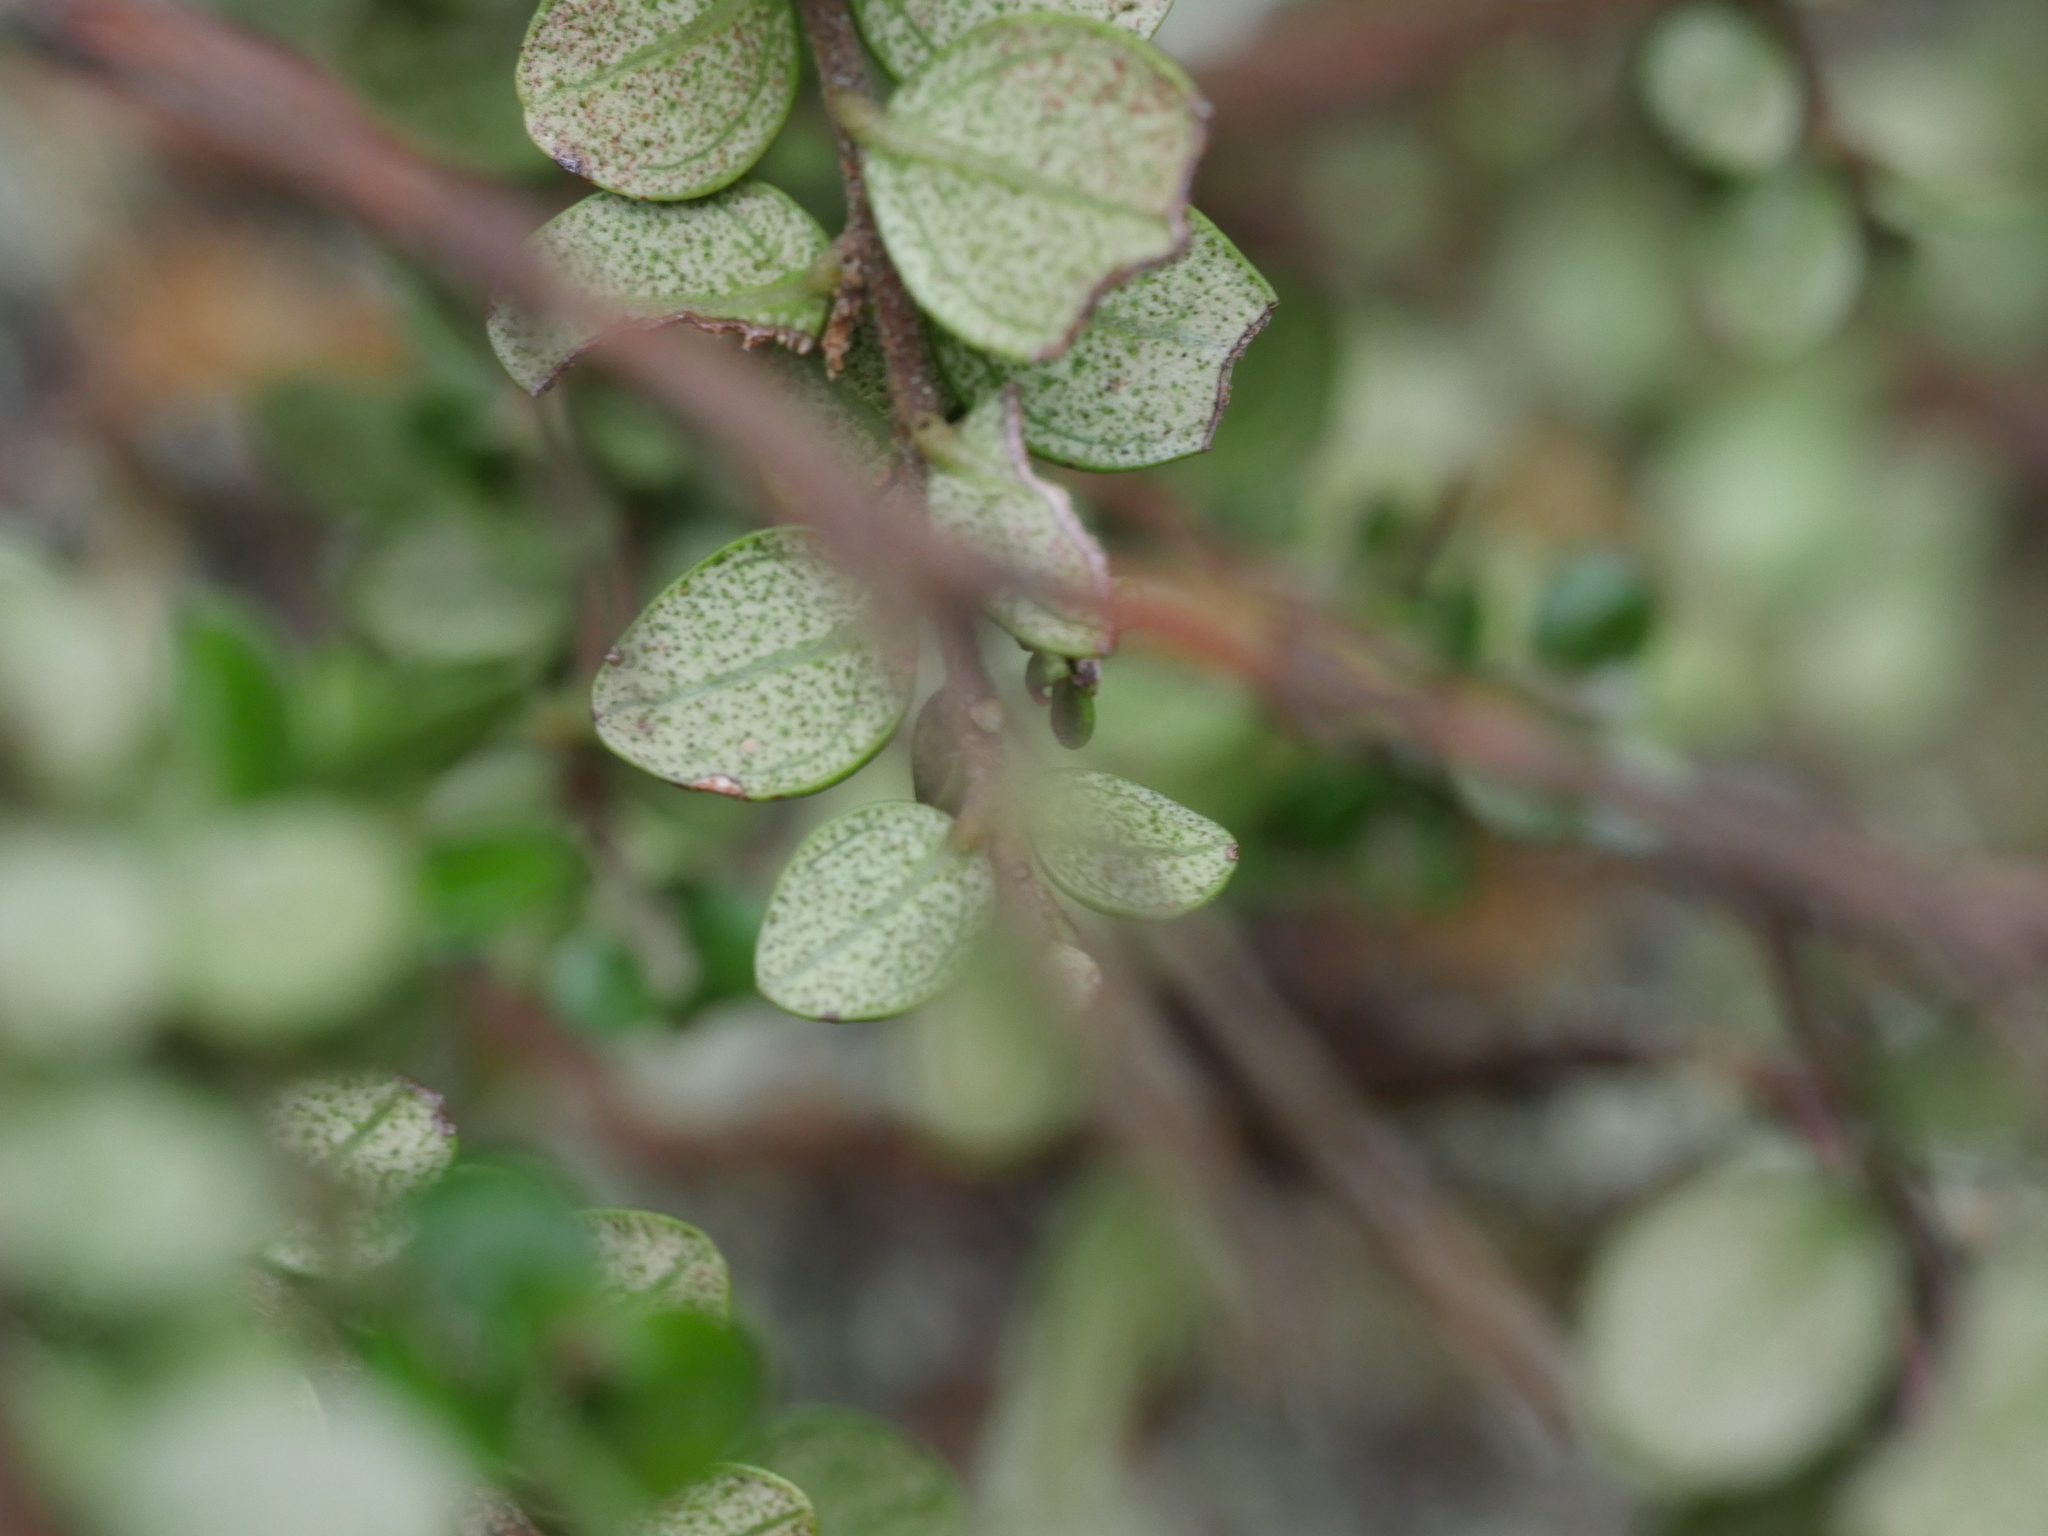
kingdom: Plantae
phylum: Tracheophyta
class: Magnoliopsida
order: Myrtales
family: Myrtaceae
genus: Metrosideros
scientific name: Metrosideros perforata
